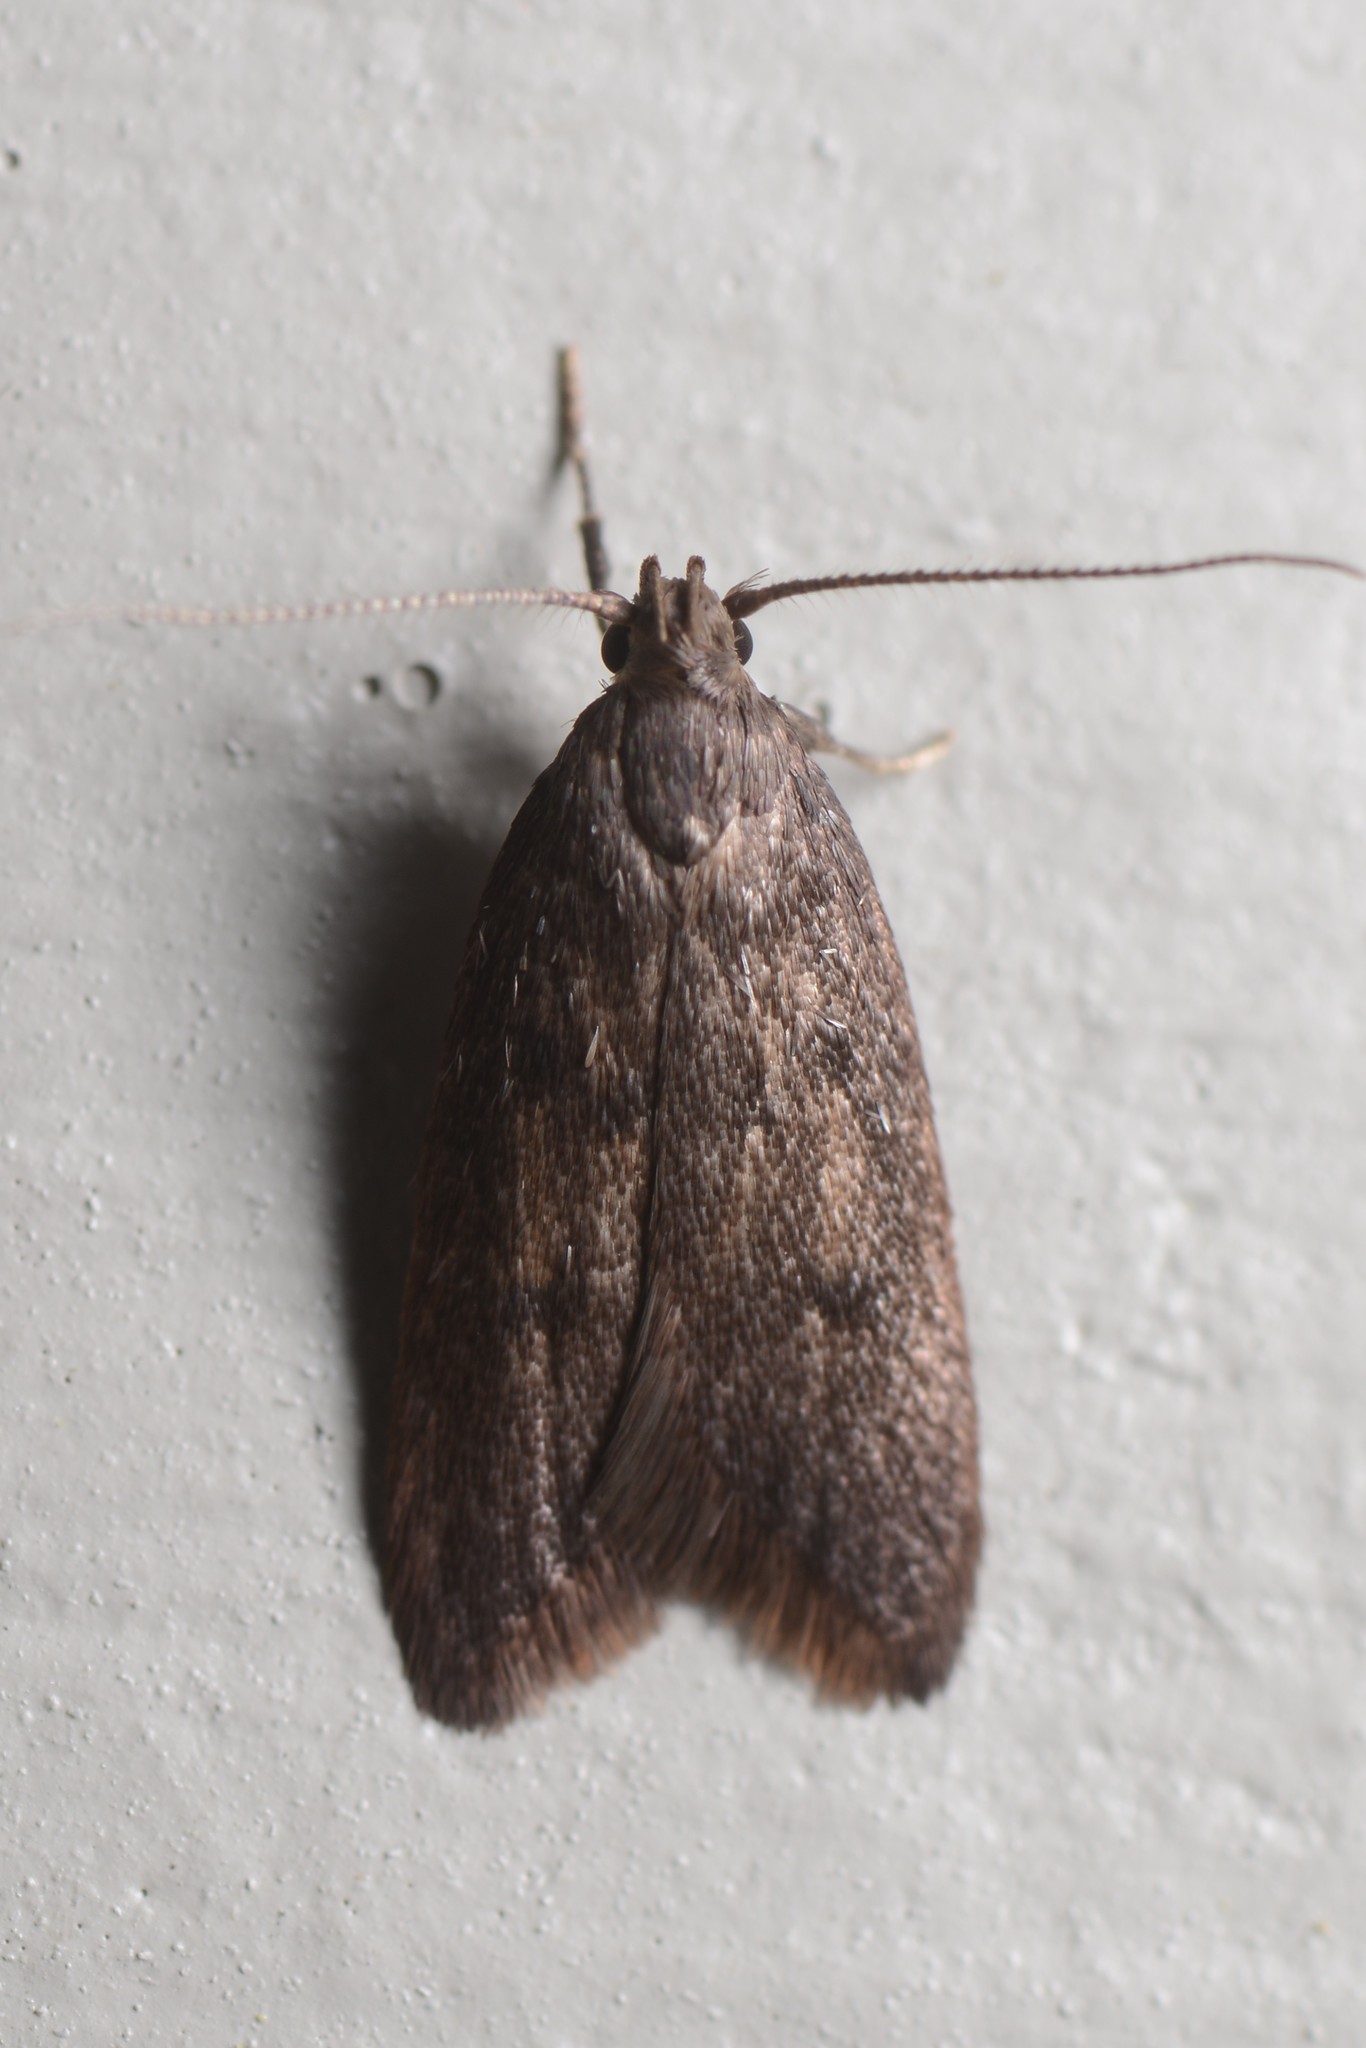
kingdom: Animalia
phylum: Arthropoda
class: Insecta
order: Lepidoptera
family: Oecophoridae
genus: Tachystola
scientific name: Tachystola acroxantha
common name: Ruddy streak
